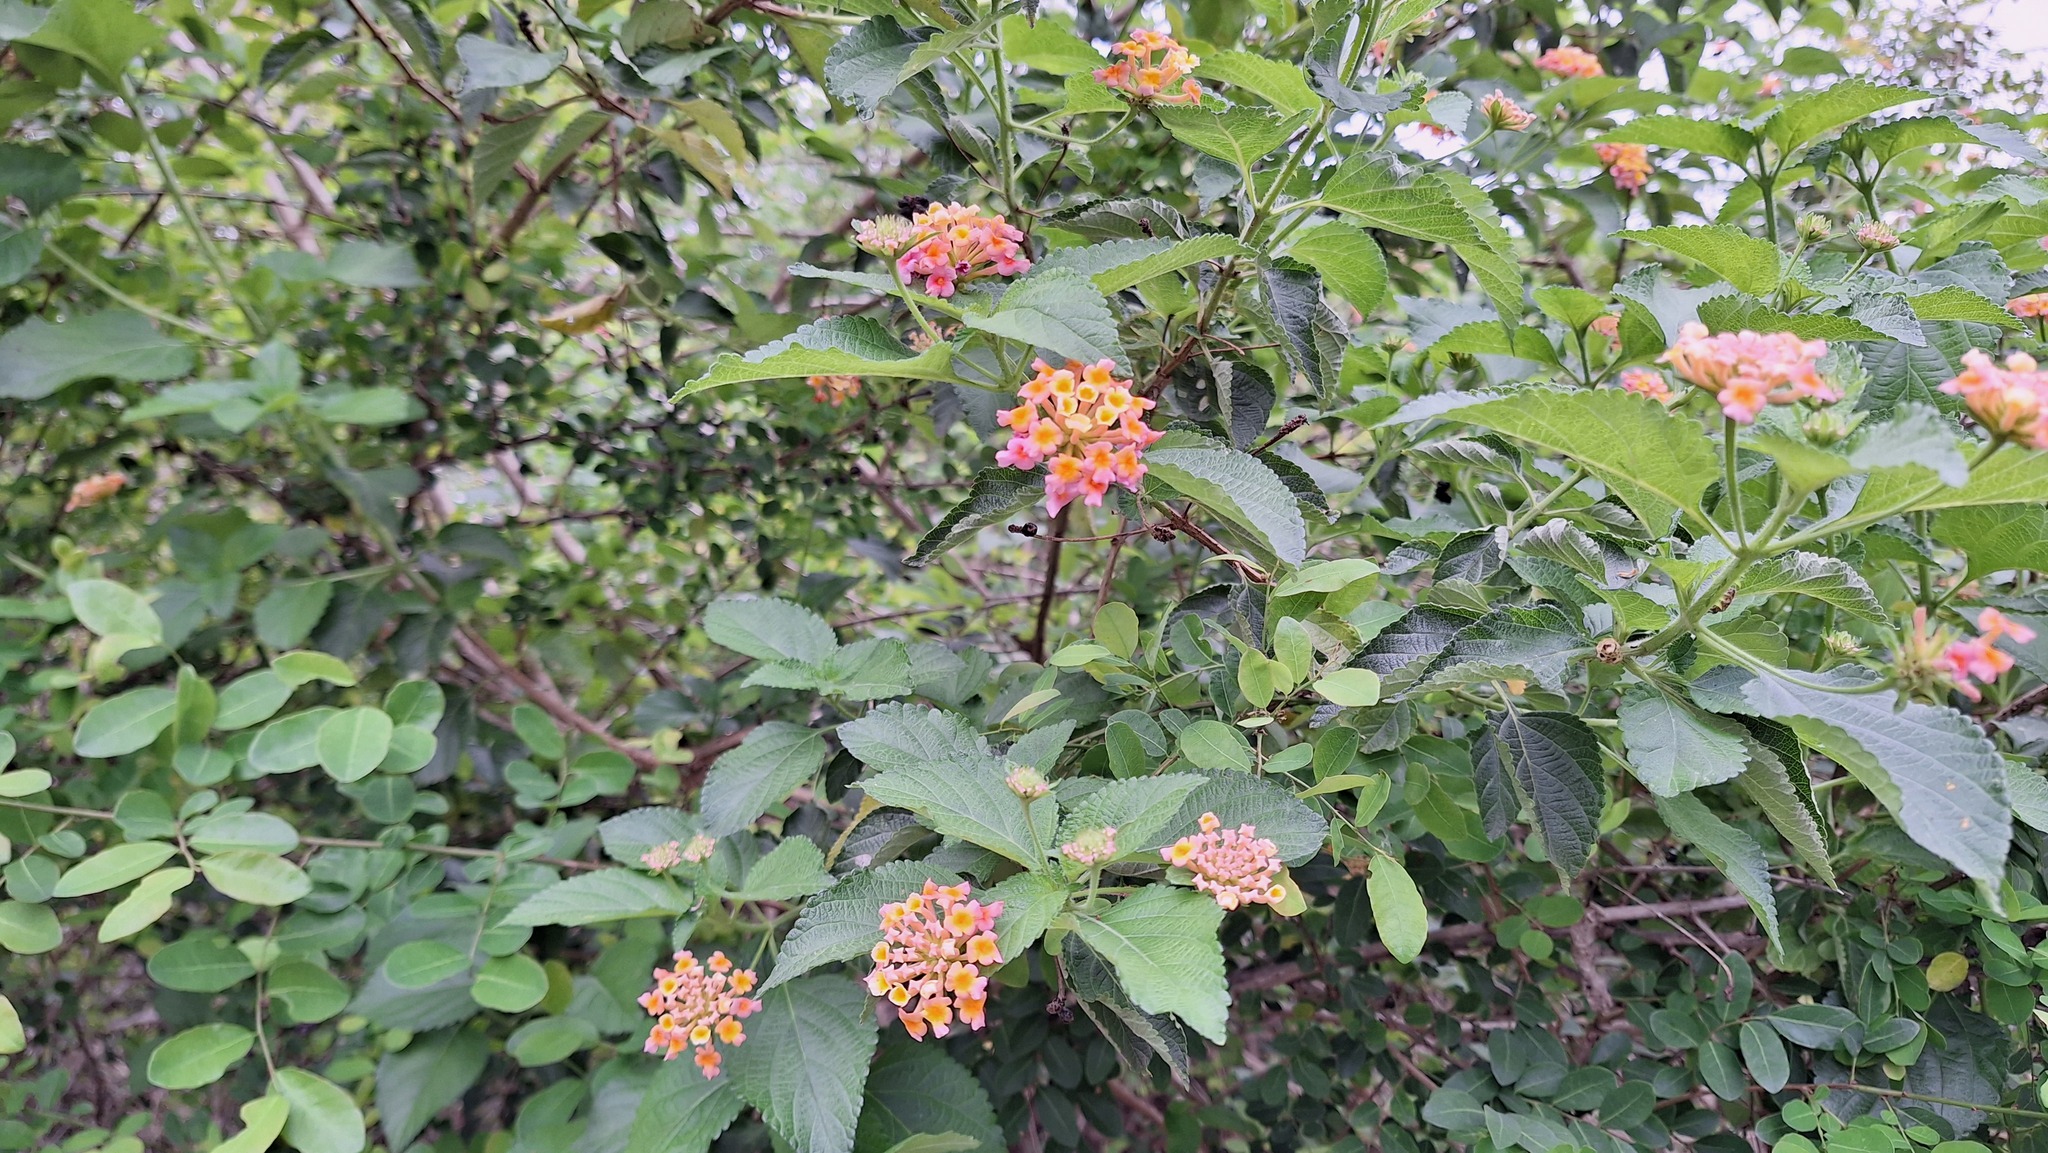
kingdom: Plantae
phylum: Tracheophyta
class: Magnoliopsida
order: Lamiales
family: Verbenaceae
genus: Lantana
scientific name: Lantana camara
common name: Lantana
